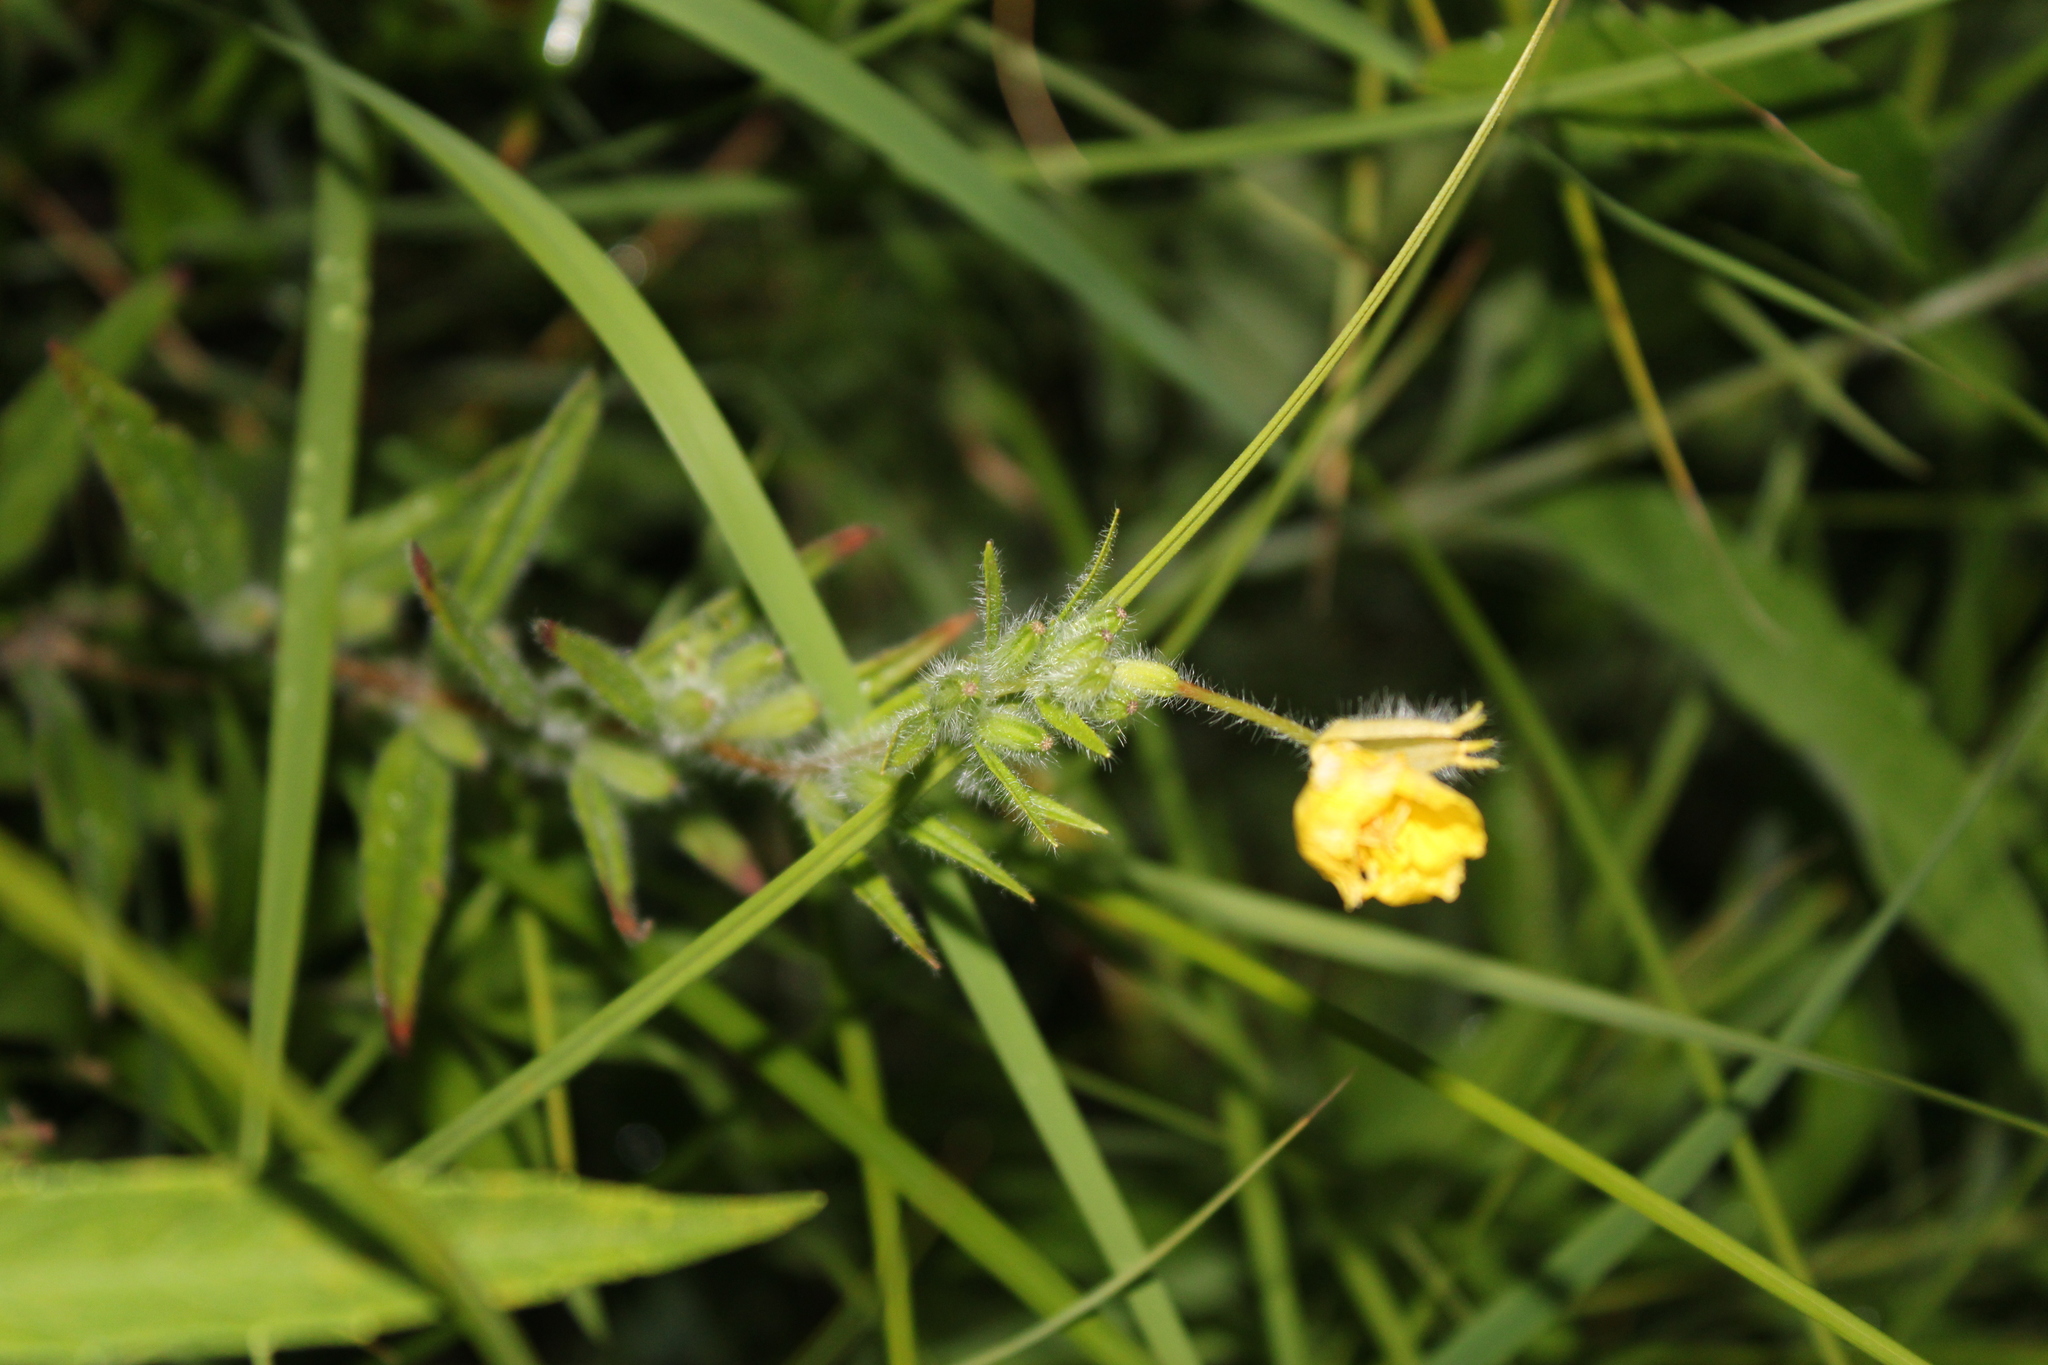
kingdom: Plantae
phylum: Tracheophyta
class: Magnoliopsida
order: Myrtales
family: Onagraceae
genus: Oenothera
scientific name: Oenothera pilosella
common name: Finely-pilose evening-primrose
